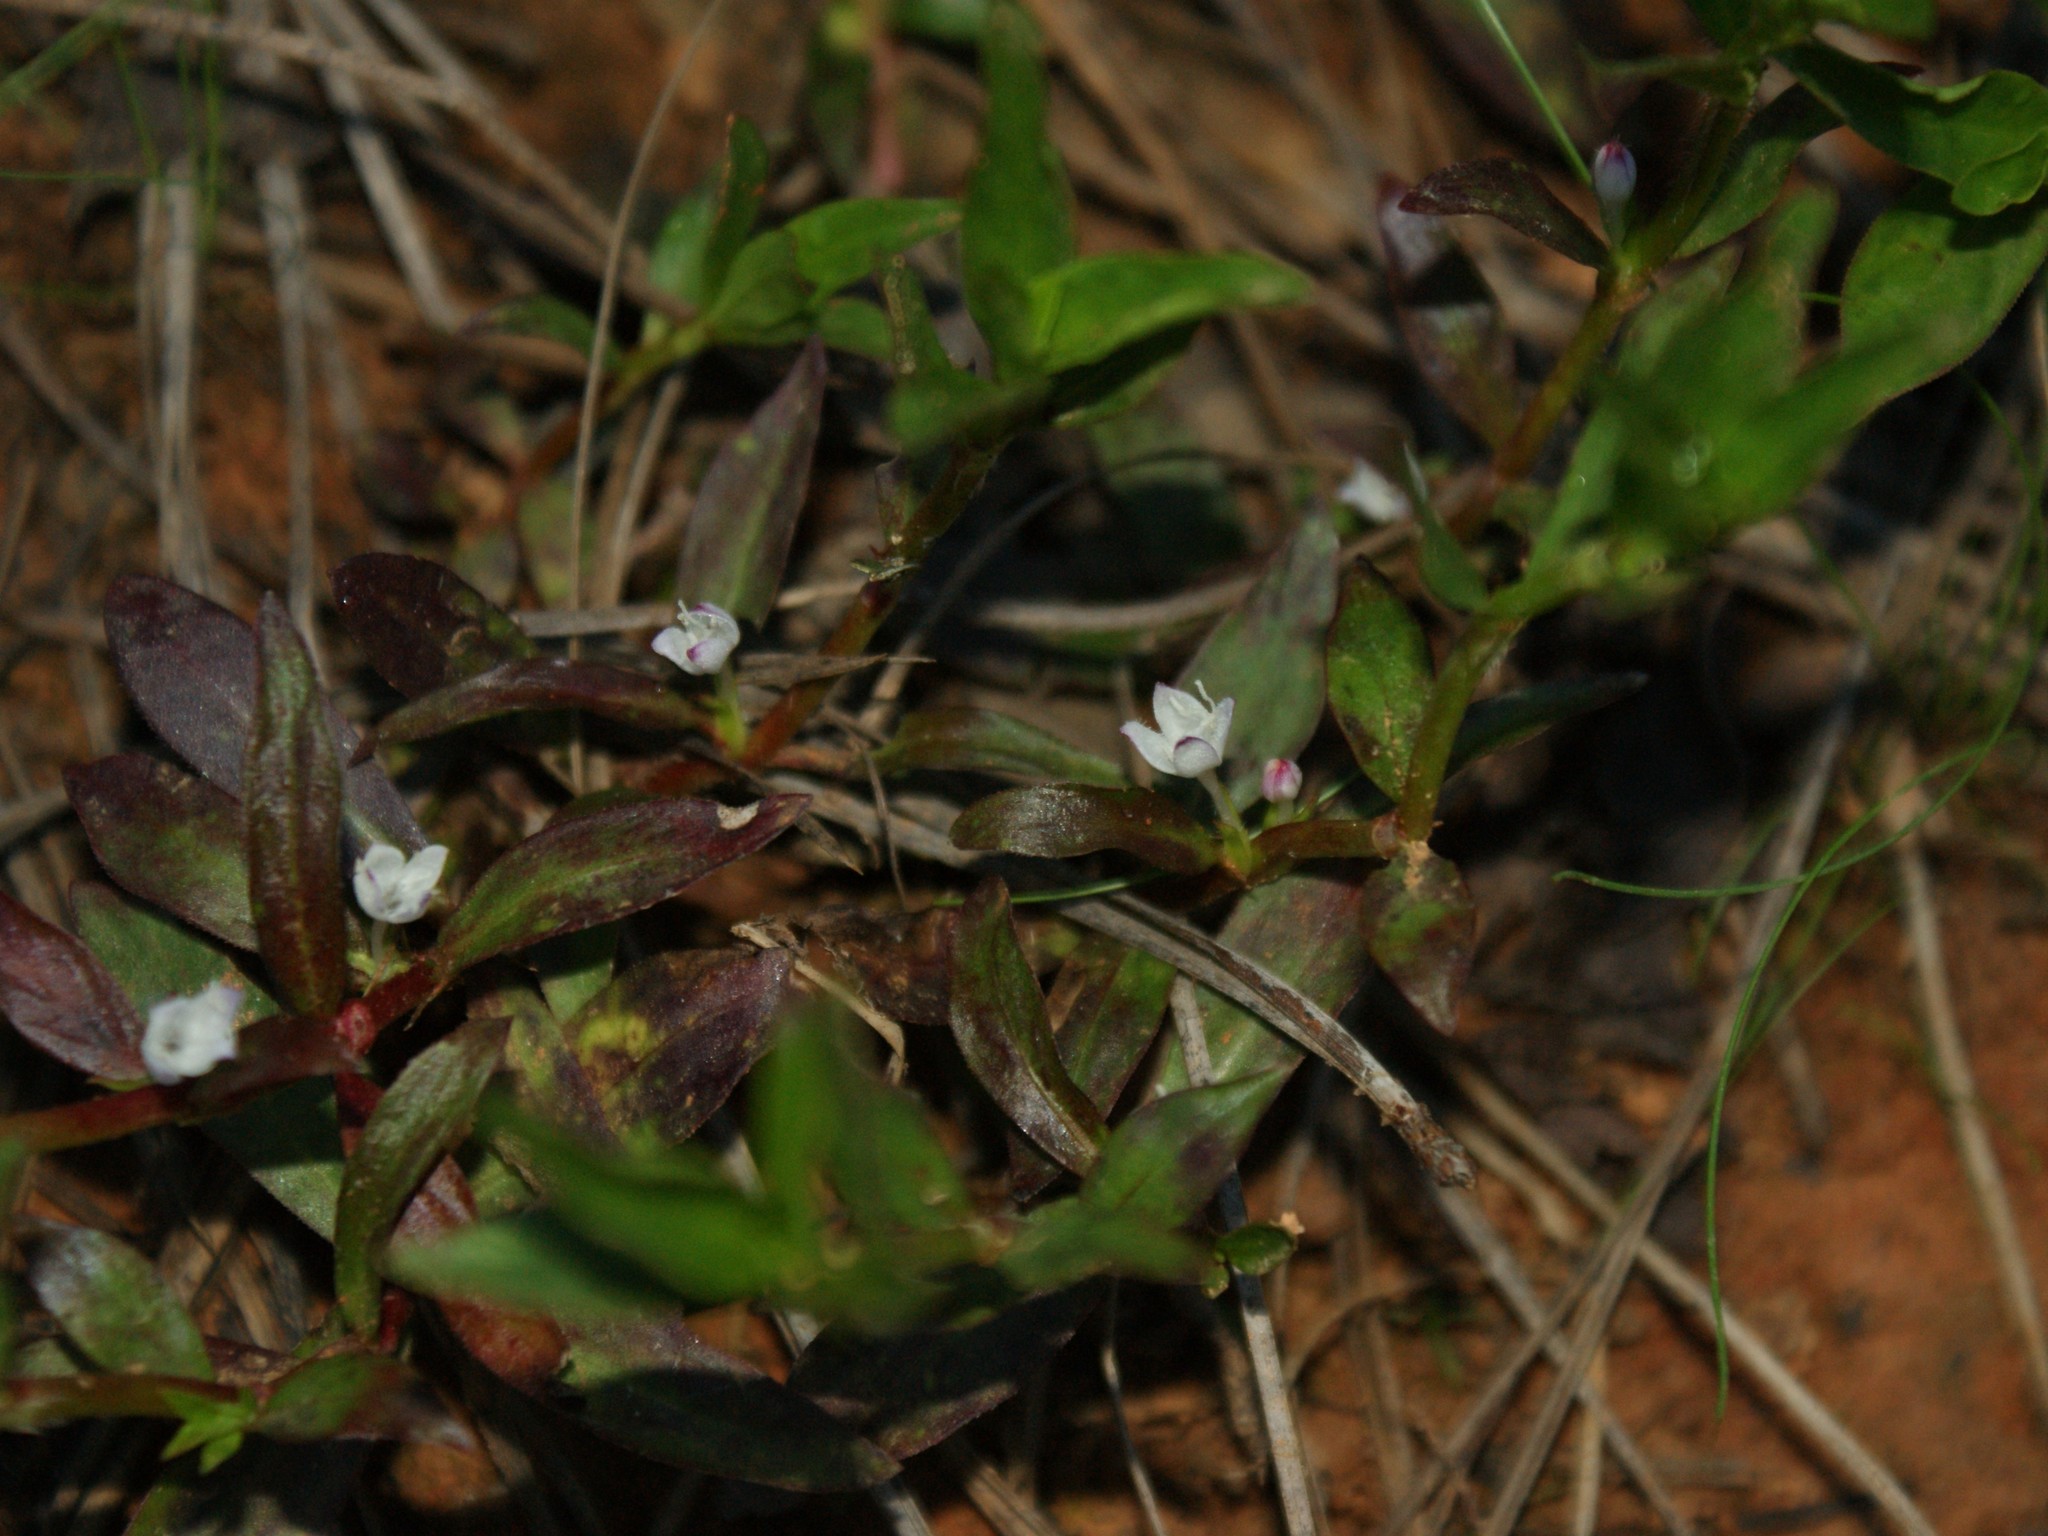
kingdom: Plantae
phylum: Tracheophyta
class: Magnoliopsida
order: Gentianales
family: Rubiaceae
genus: Diodia
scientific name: Diodia virginiana
